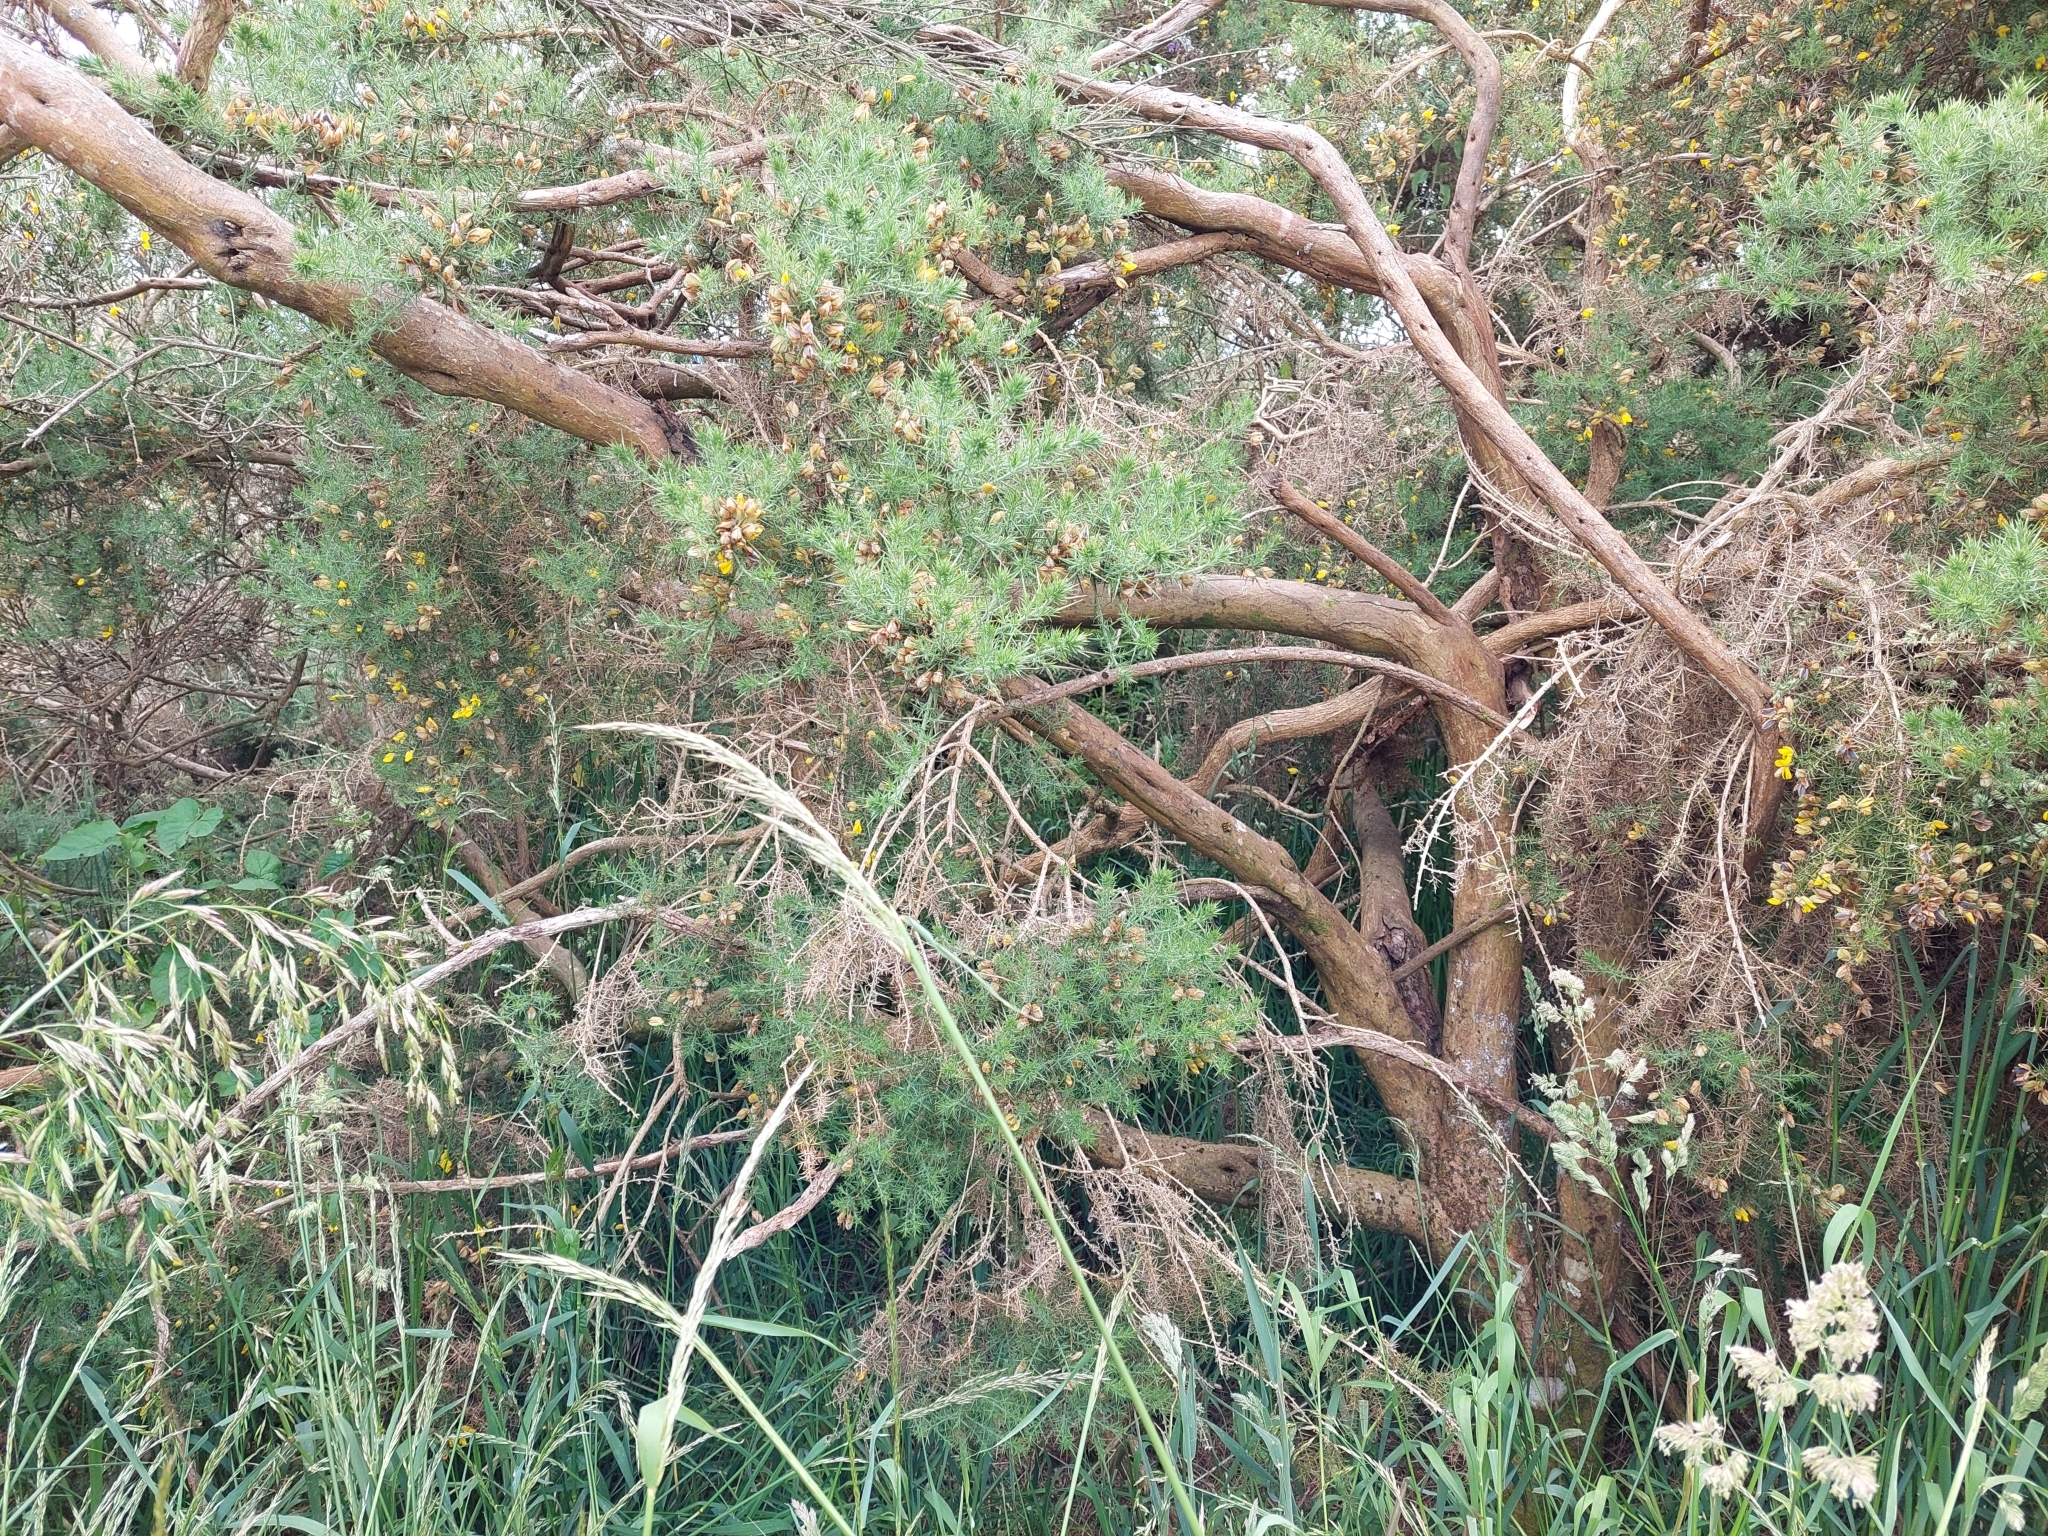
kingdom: Plantae
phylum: Tracheophyta
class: Magnoliopsida
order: Fabales
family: Fabaceae
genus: Cytisus
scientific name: Cytisus scoparius
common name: Scotch broom
